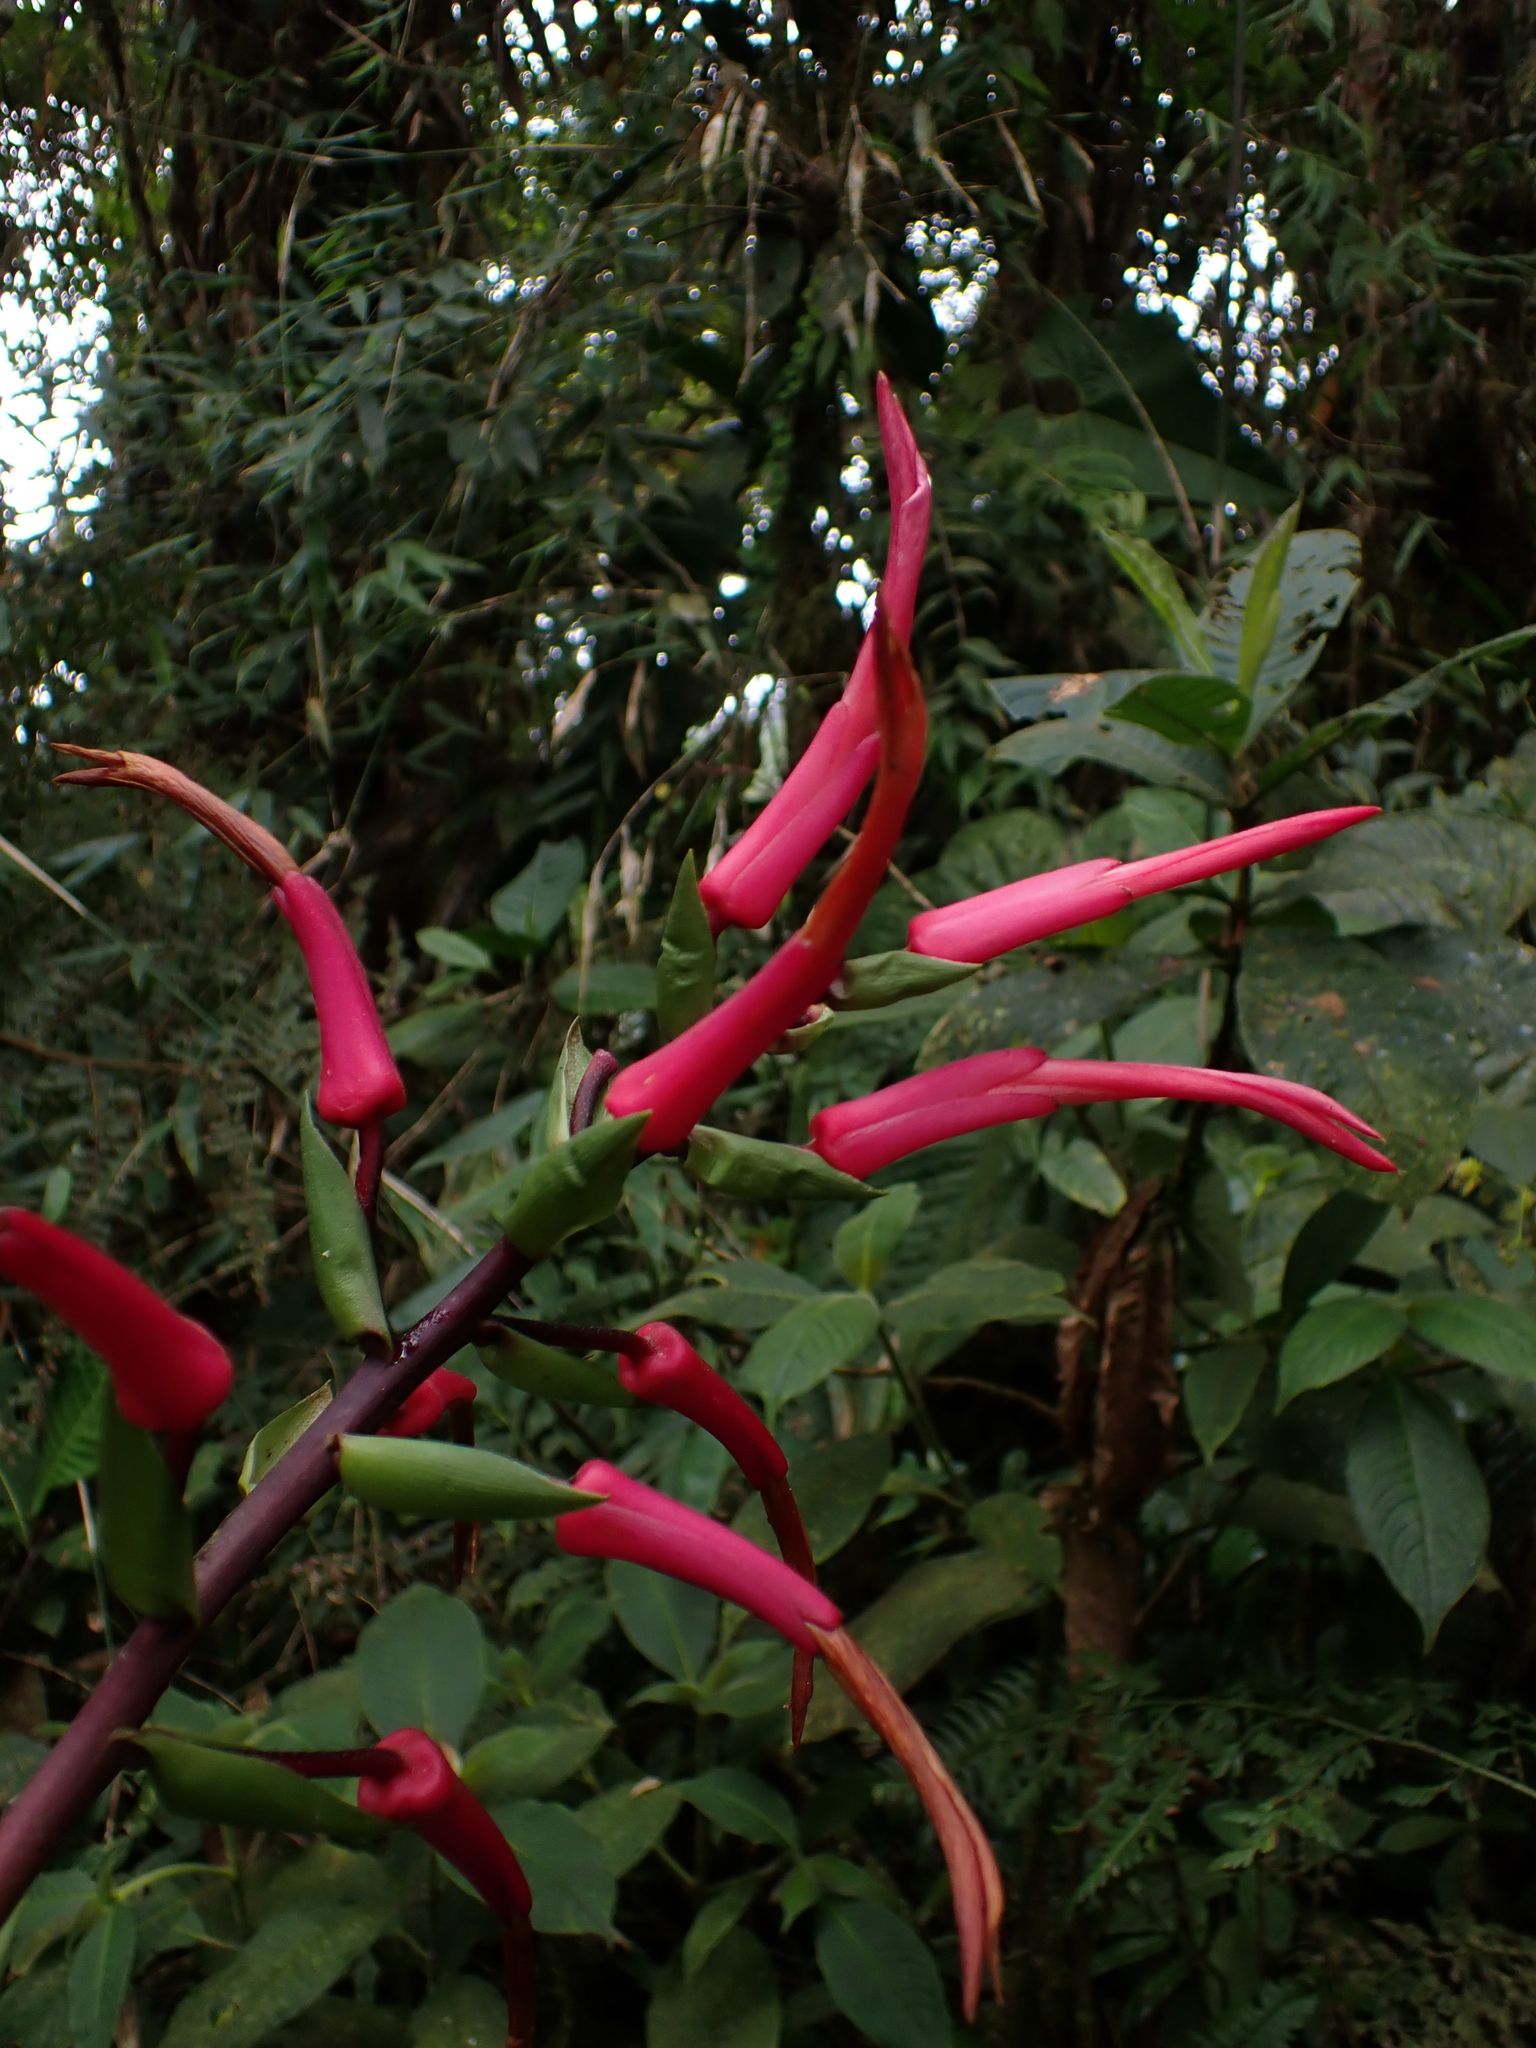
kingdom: Plantae
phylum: Tracheophyta
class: Liliopsida
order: Poales
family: Bromeliaceae
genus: Pitcairnia
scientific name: Pitcairnia hooveri
